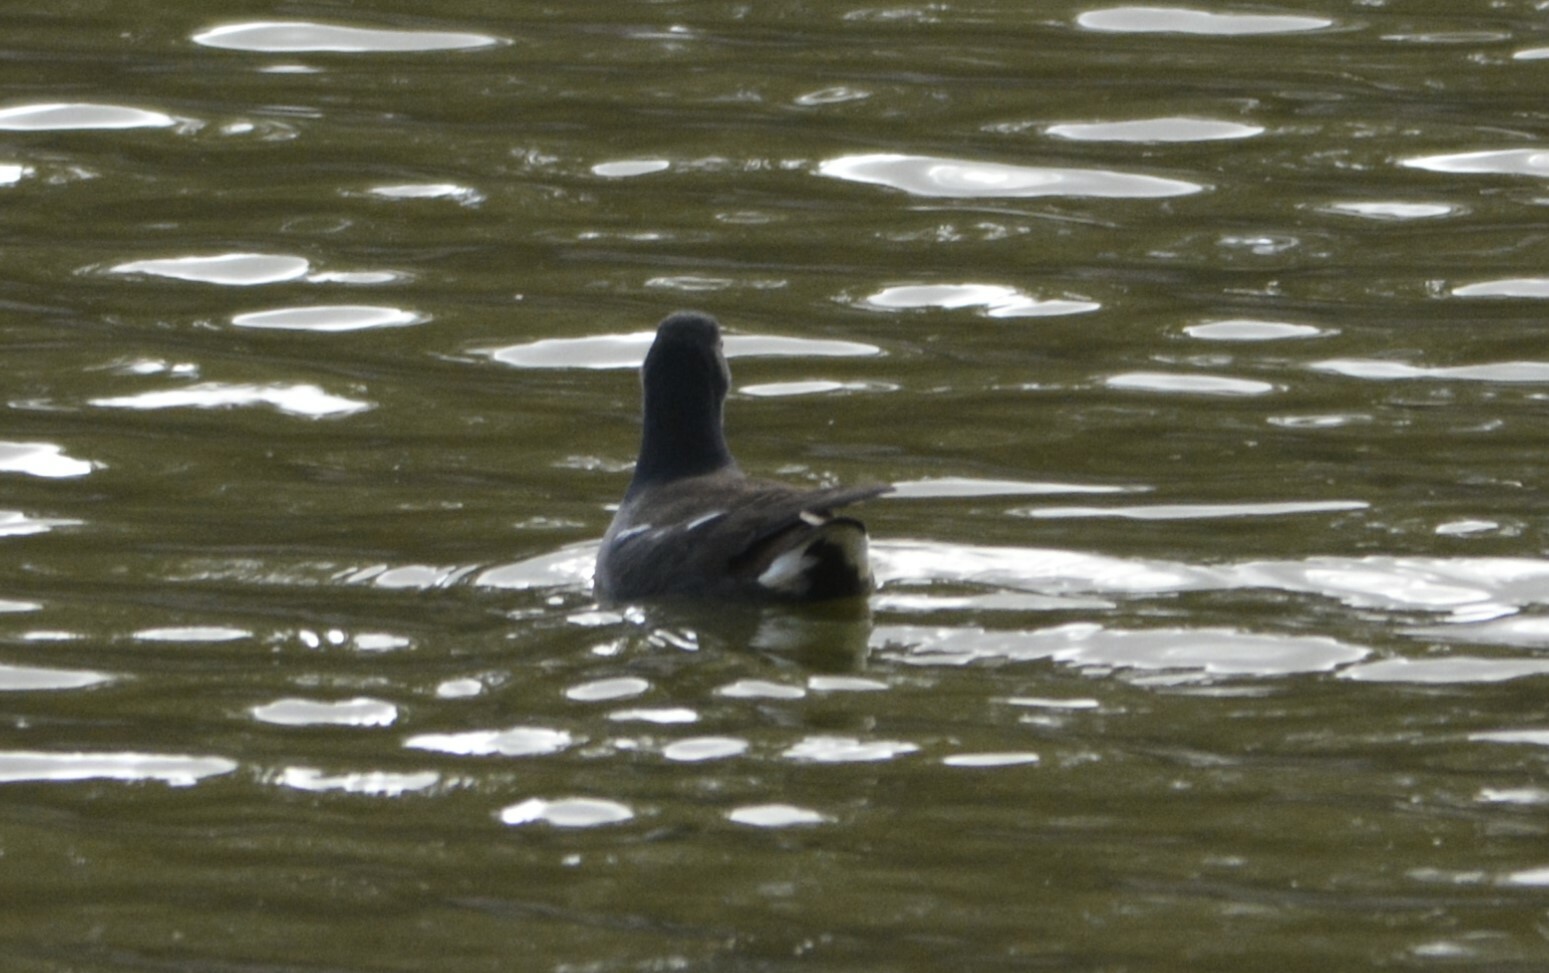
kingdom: Animalia
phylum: Chordata
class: Aves
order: Gruiformes
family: Rallidae
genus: Gallinula
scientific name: Gallinula chloropus
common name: Common moorhen
